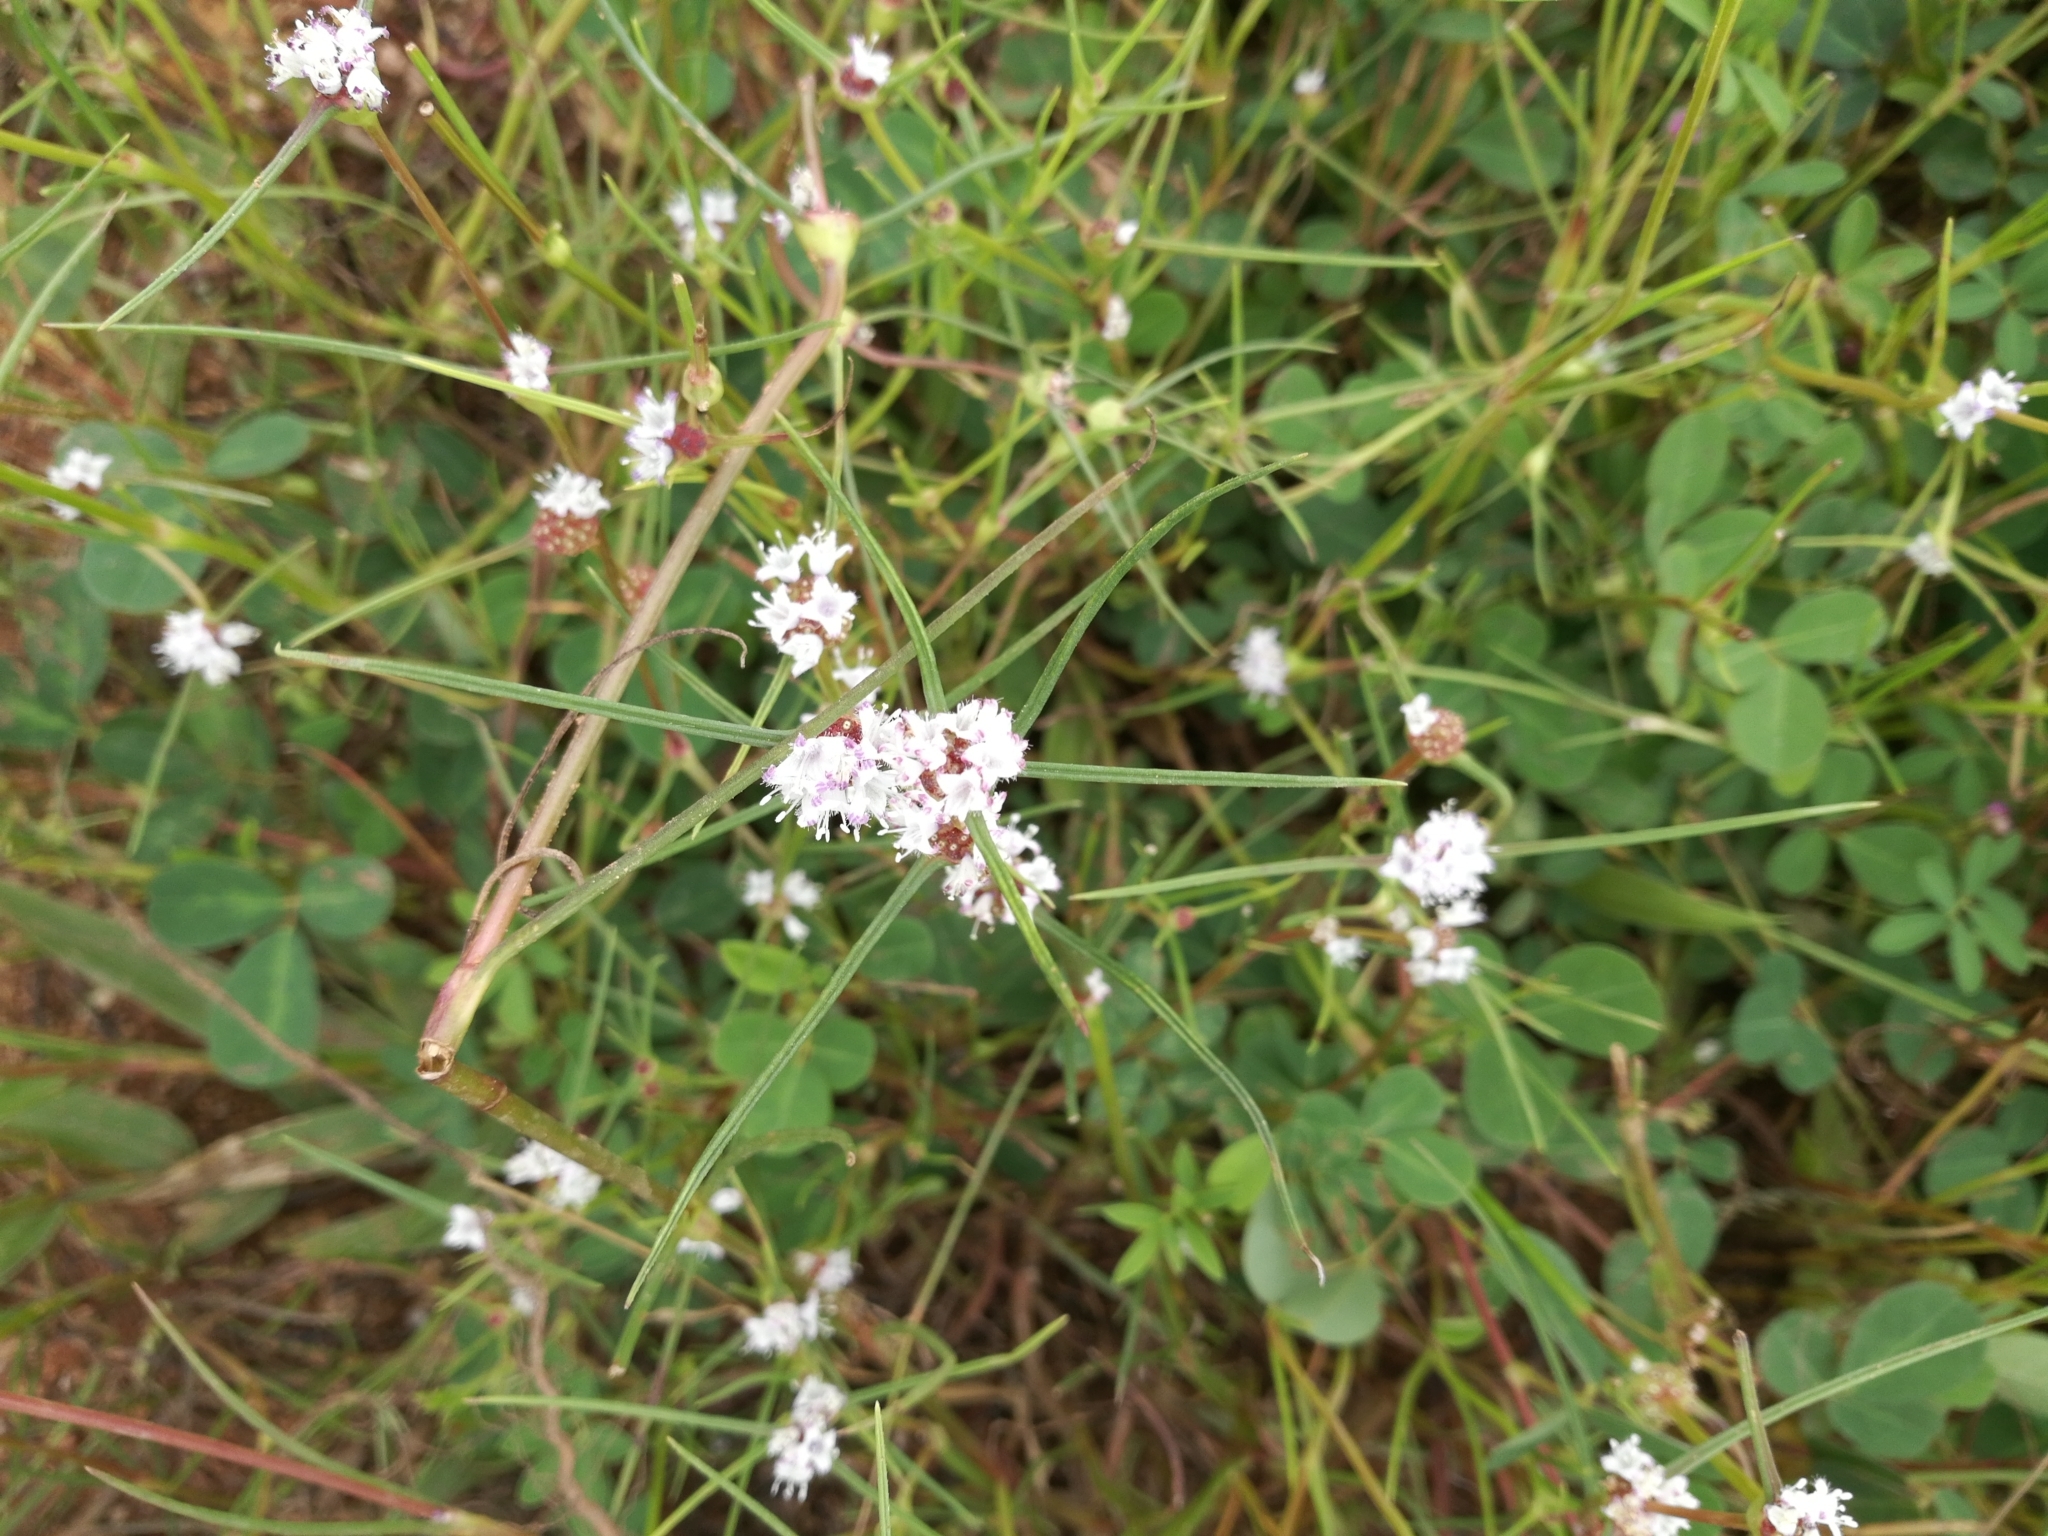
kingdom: Plantae
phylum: Tracheophyta
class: Magnoliopsida
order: Gentianales
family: Rubiaceae
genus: Spermacoce
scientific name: Spermacoce filifolia
